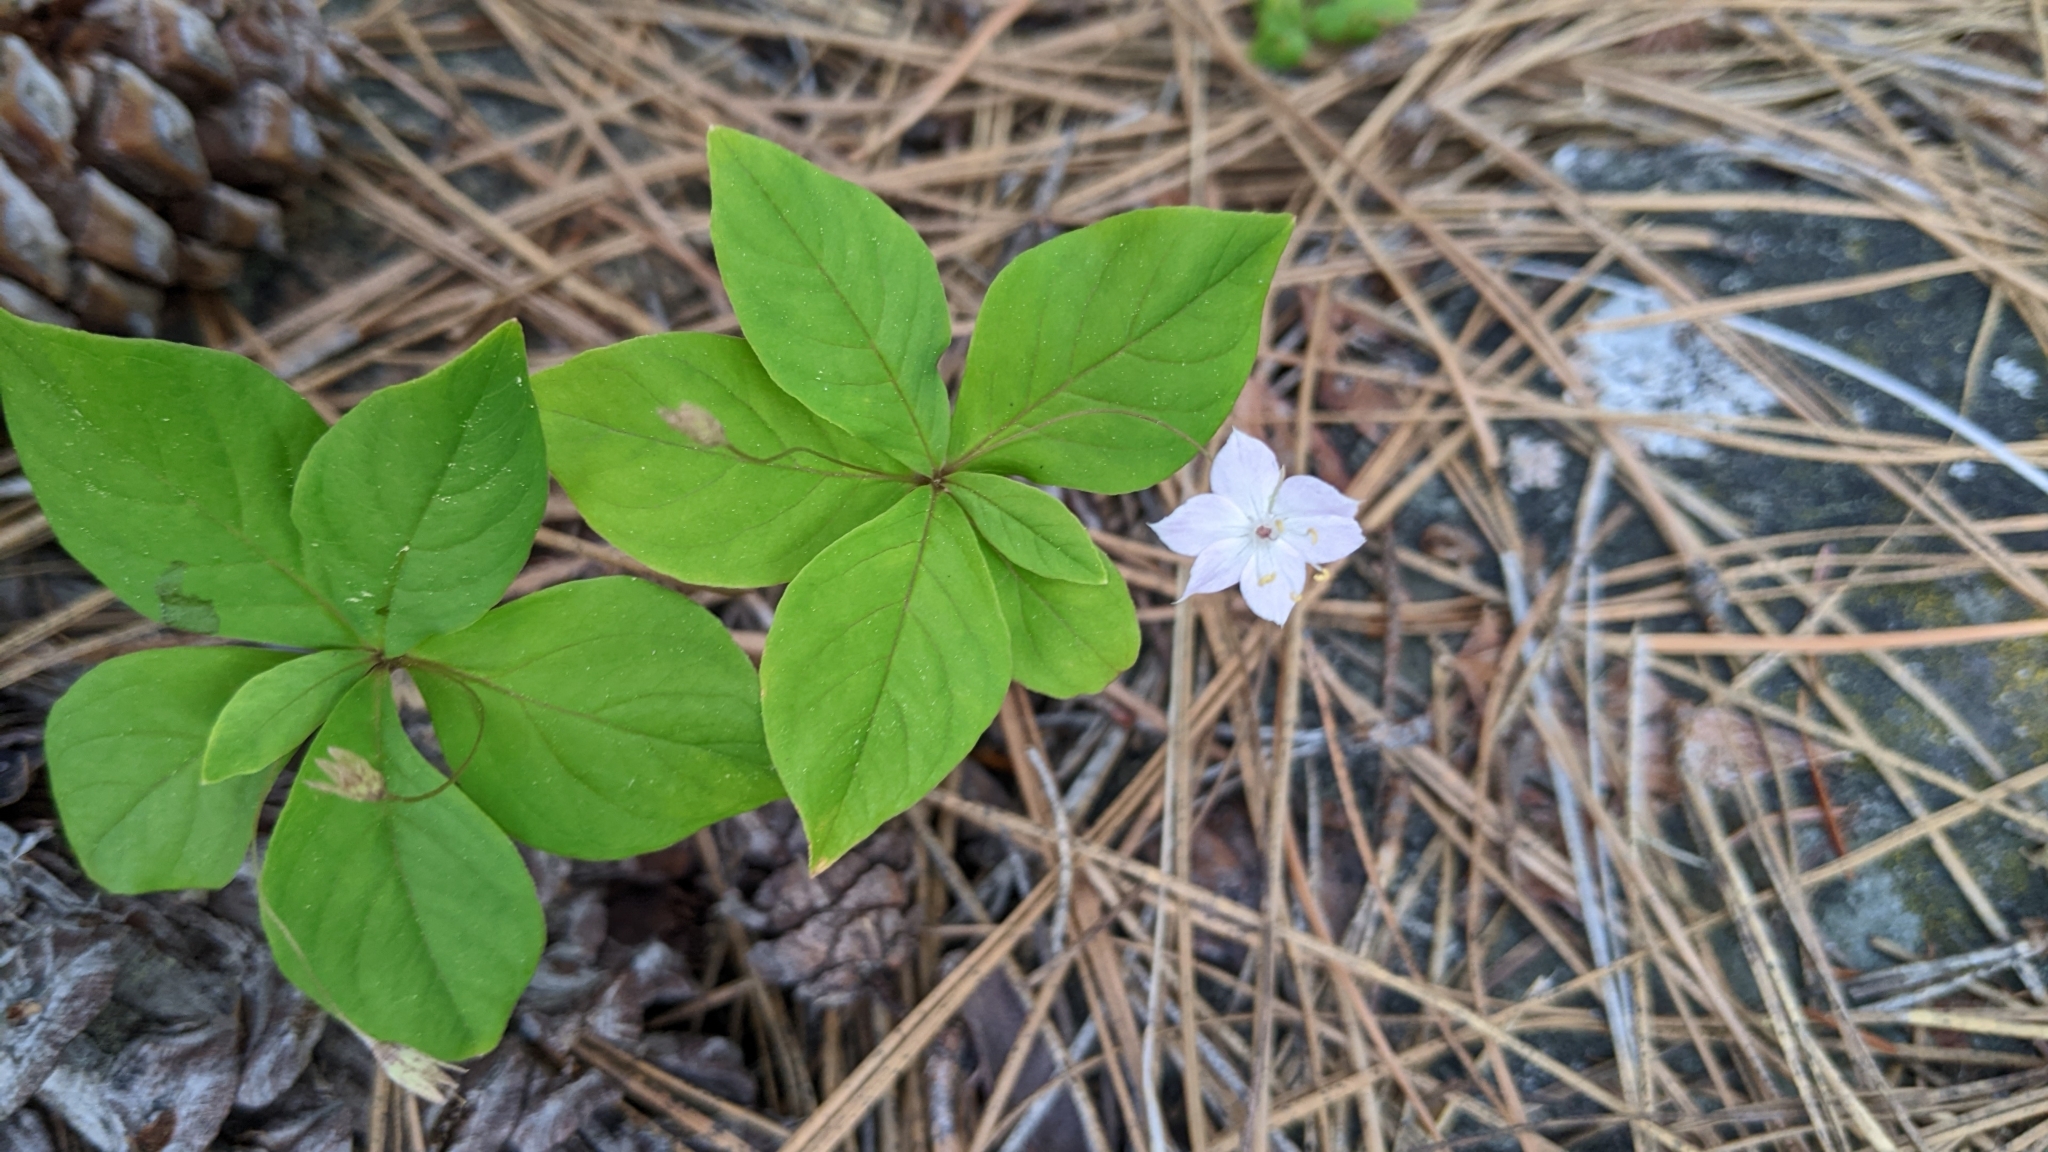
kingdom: Plantae
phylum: Tracheophyta
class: Magnoliopsida
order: Ericales
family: Primulaceae
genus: Lysimachia
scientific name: Lysimachia latifolia
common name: Pacific starflower
